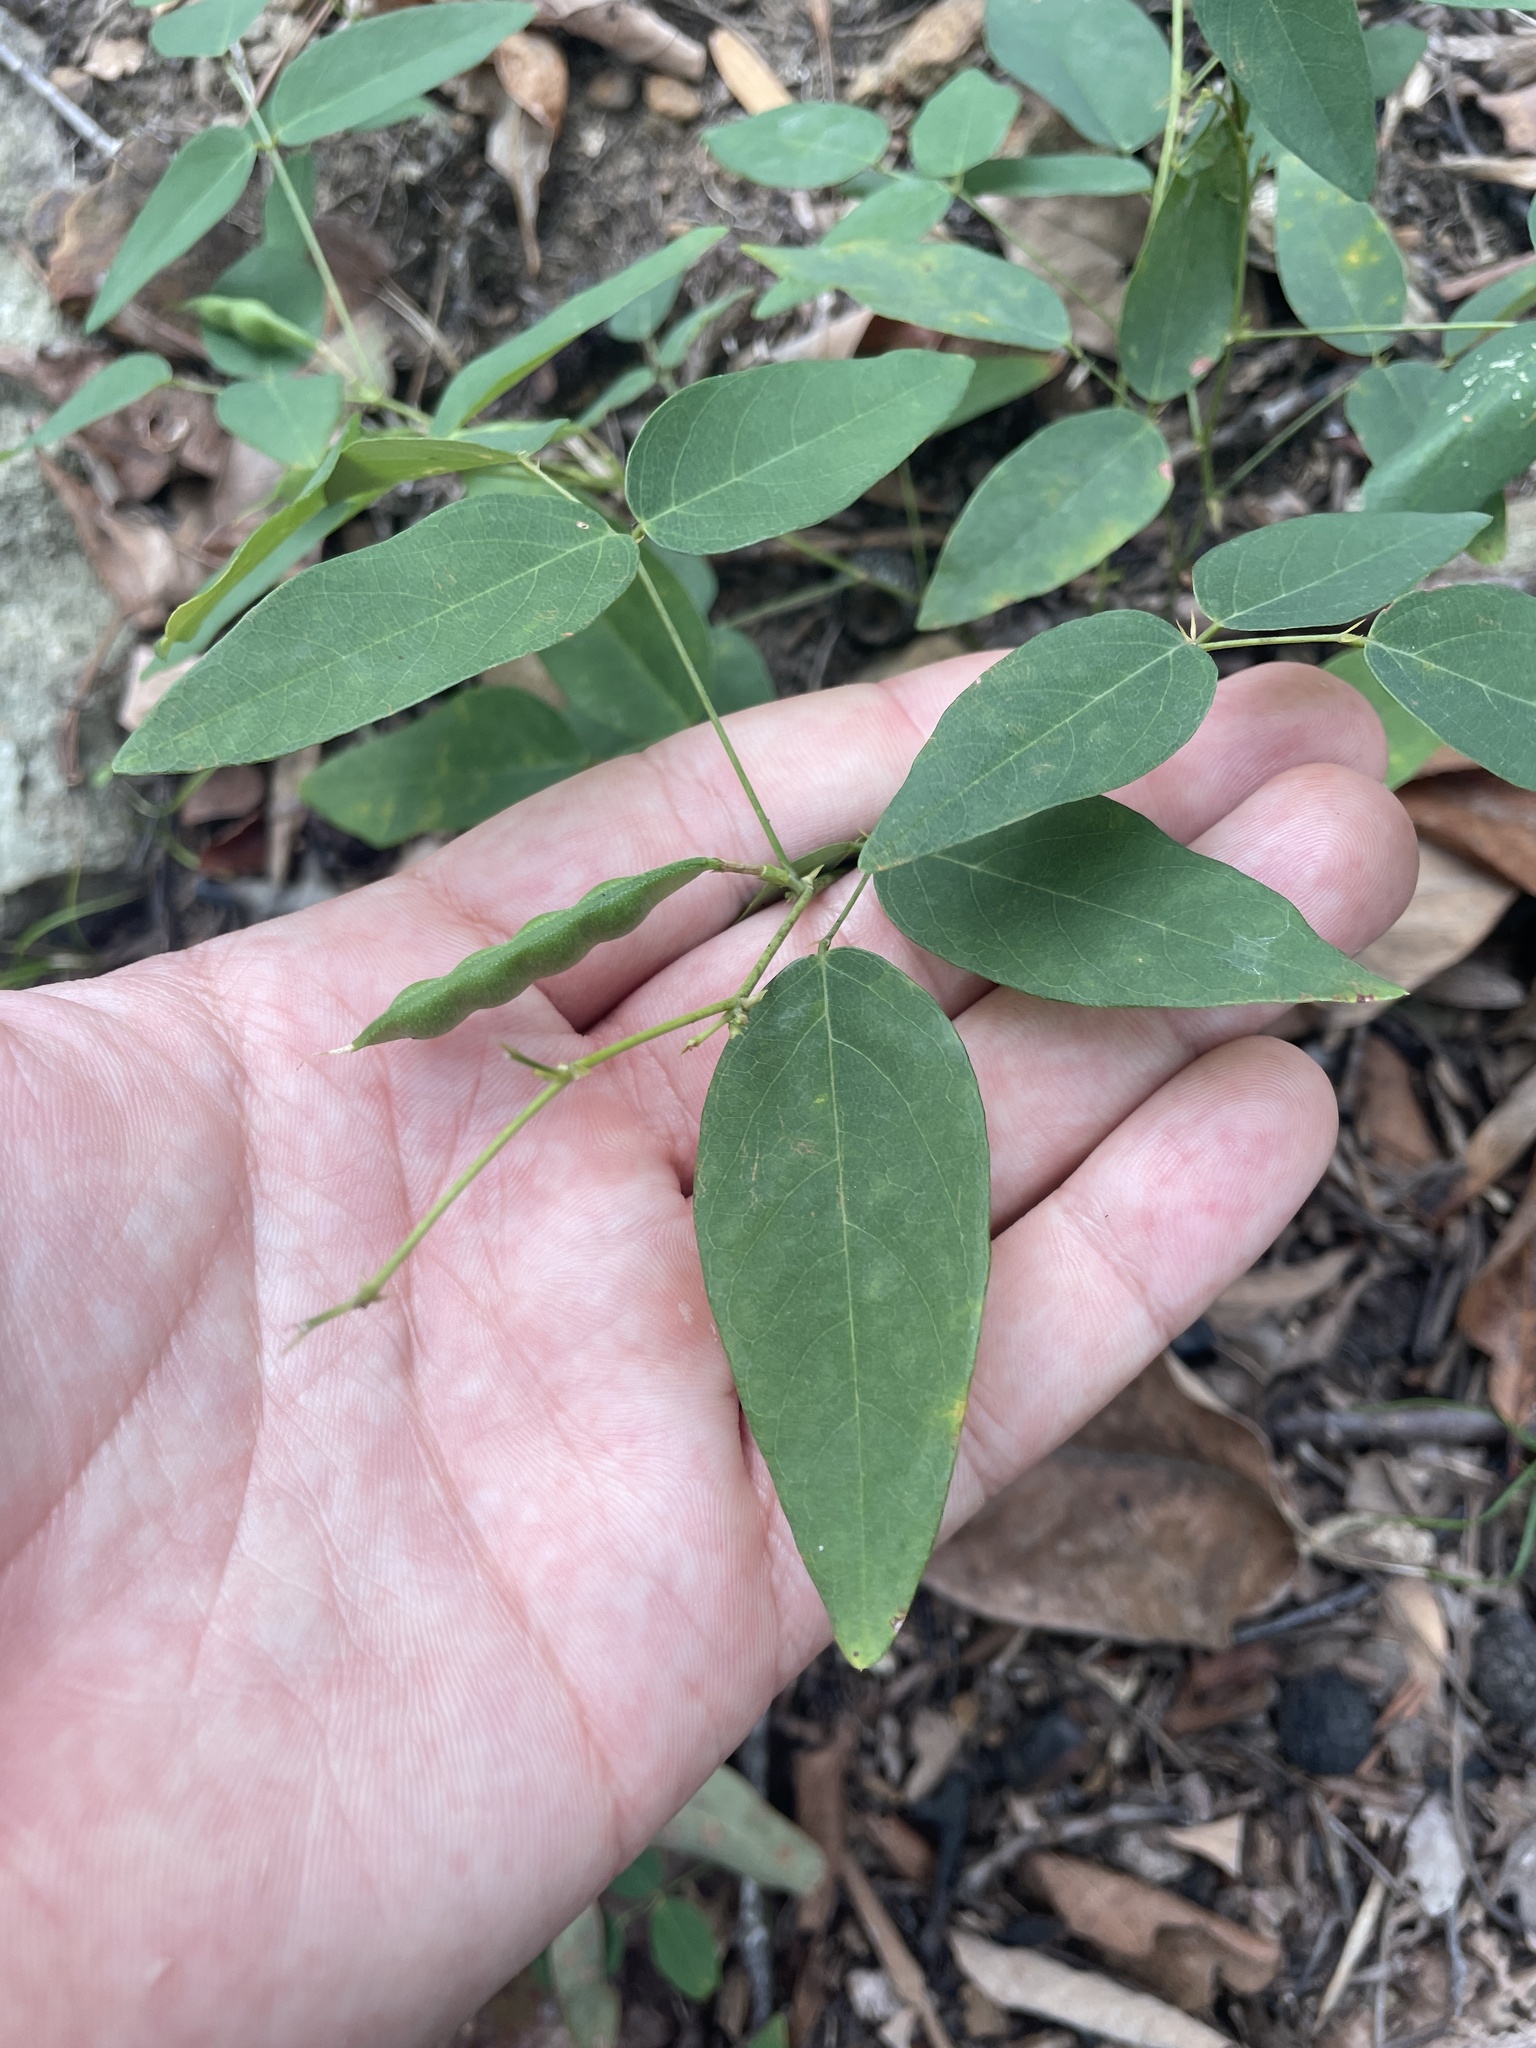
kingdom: Plantae
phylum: Tracheophyta
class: Magnoliopsida
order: Fabales
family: Fabaceae
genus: Clitoria
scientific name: Clitoria mariana
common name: Butterfly-pea
